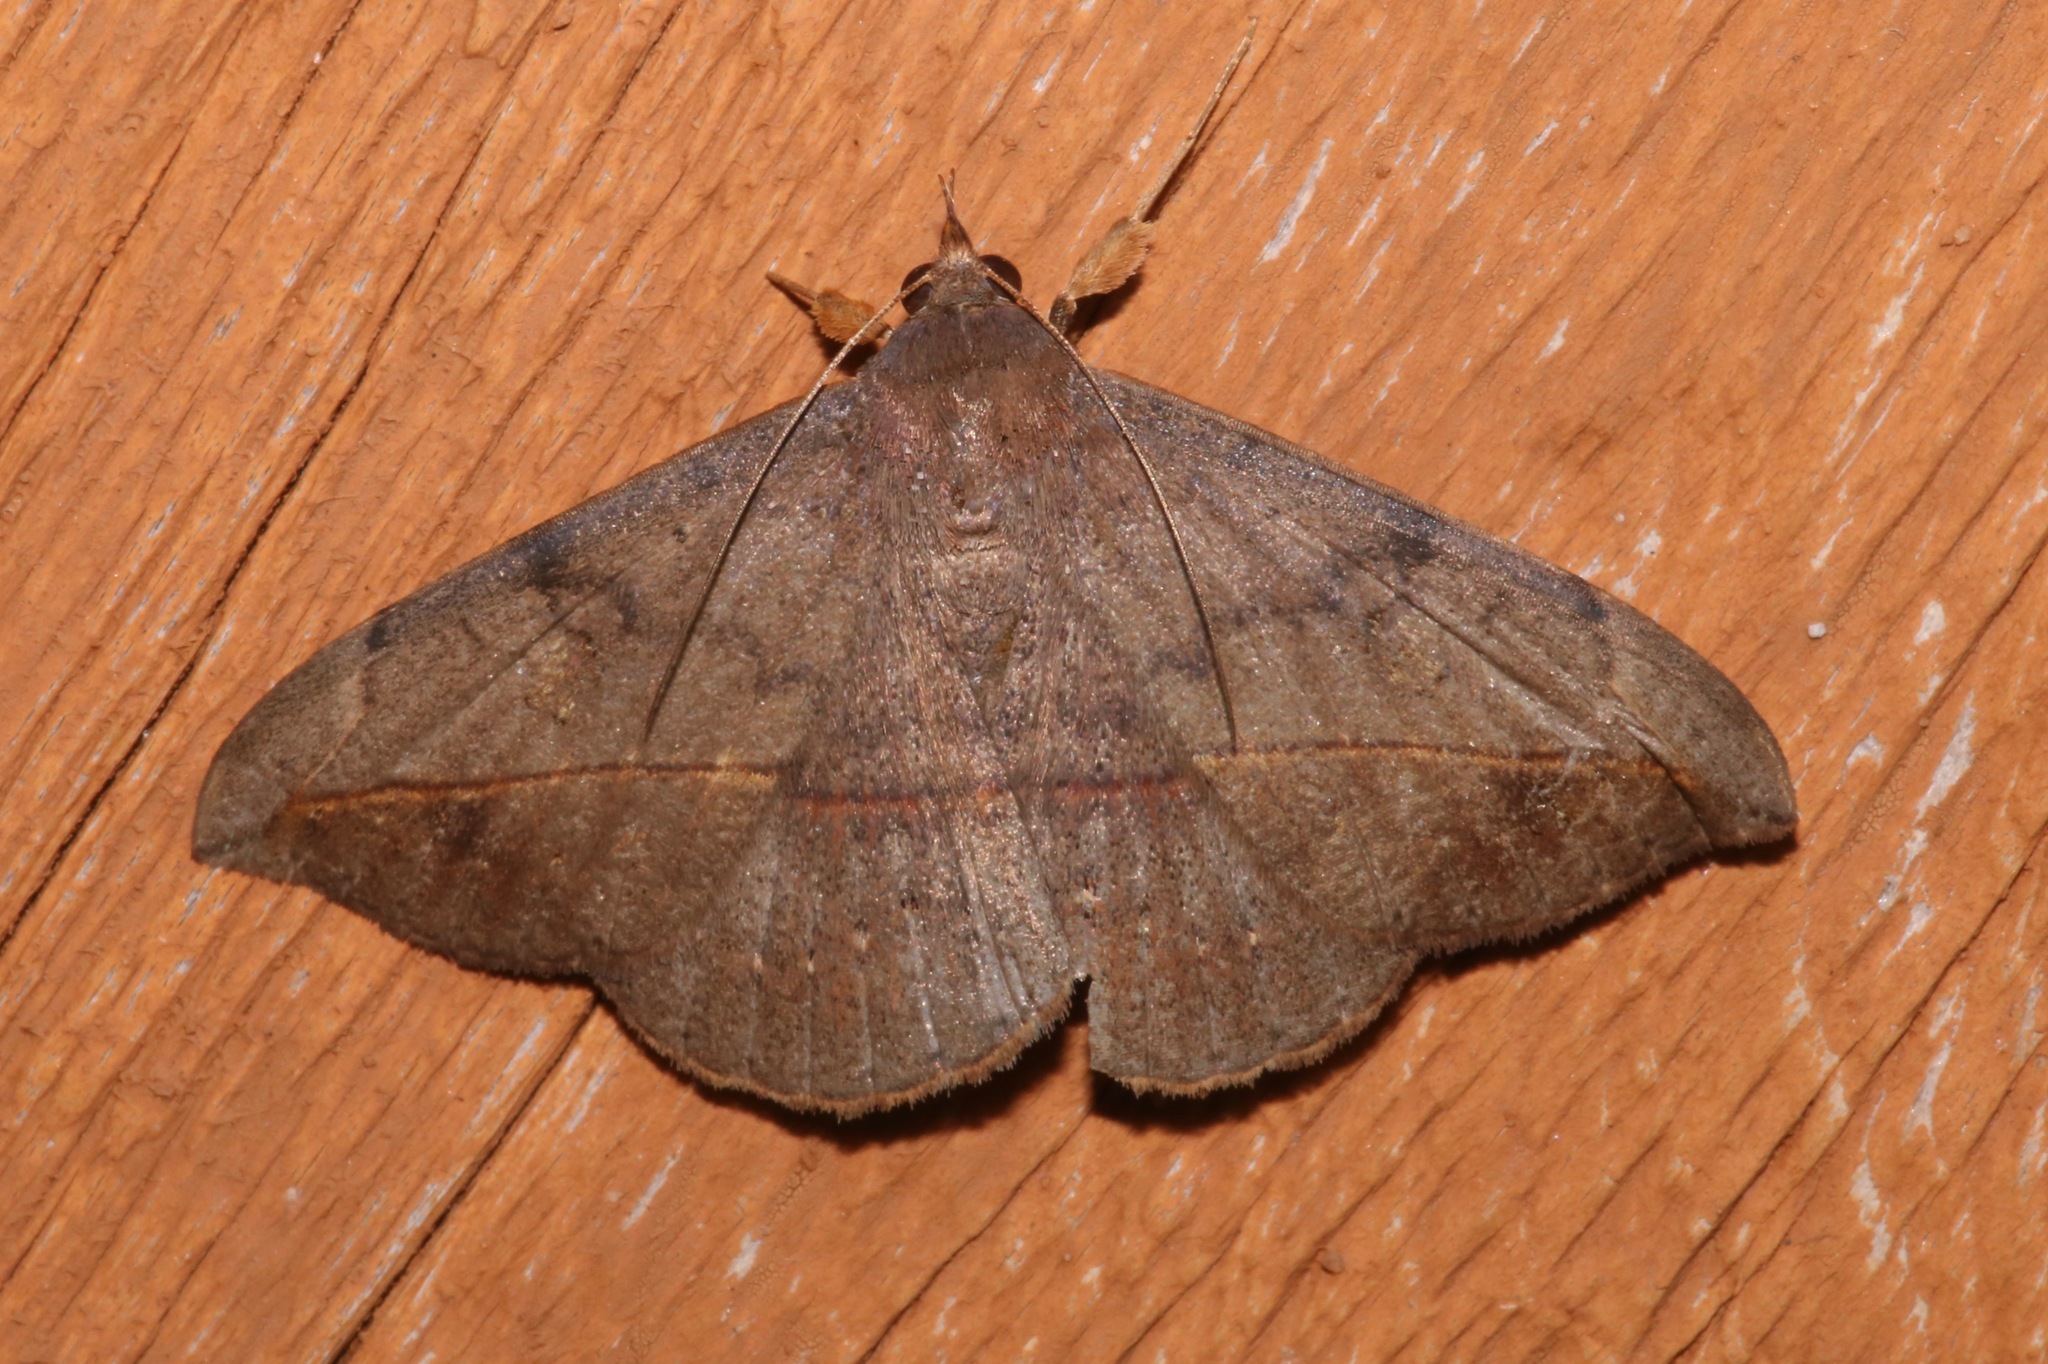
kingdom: Animalia
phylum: Arthropoda
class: Insecta
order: Lepidoptera
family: Erebidae
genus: Anticarsia
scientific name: Anticarsia gemmatalis
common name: Cutworm moth
